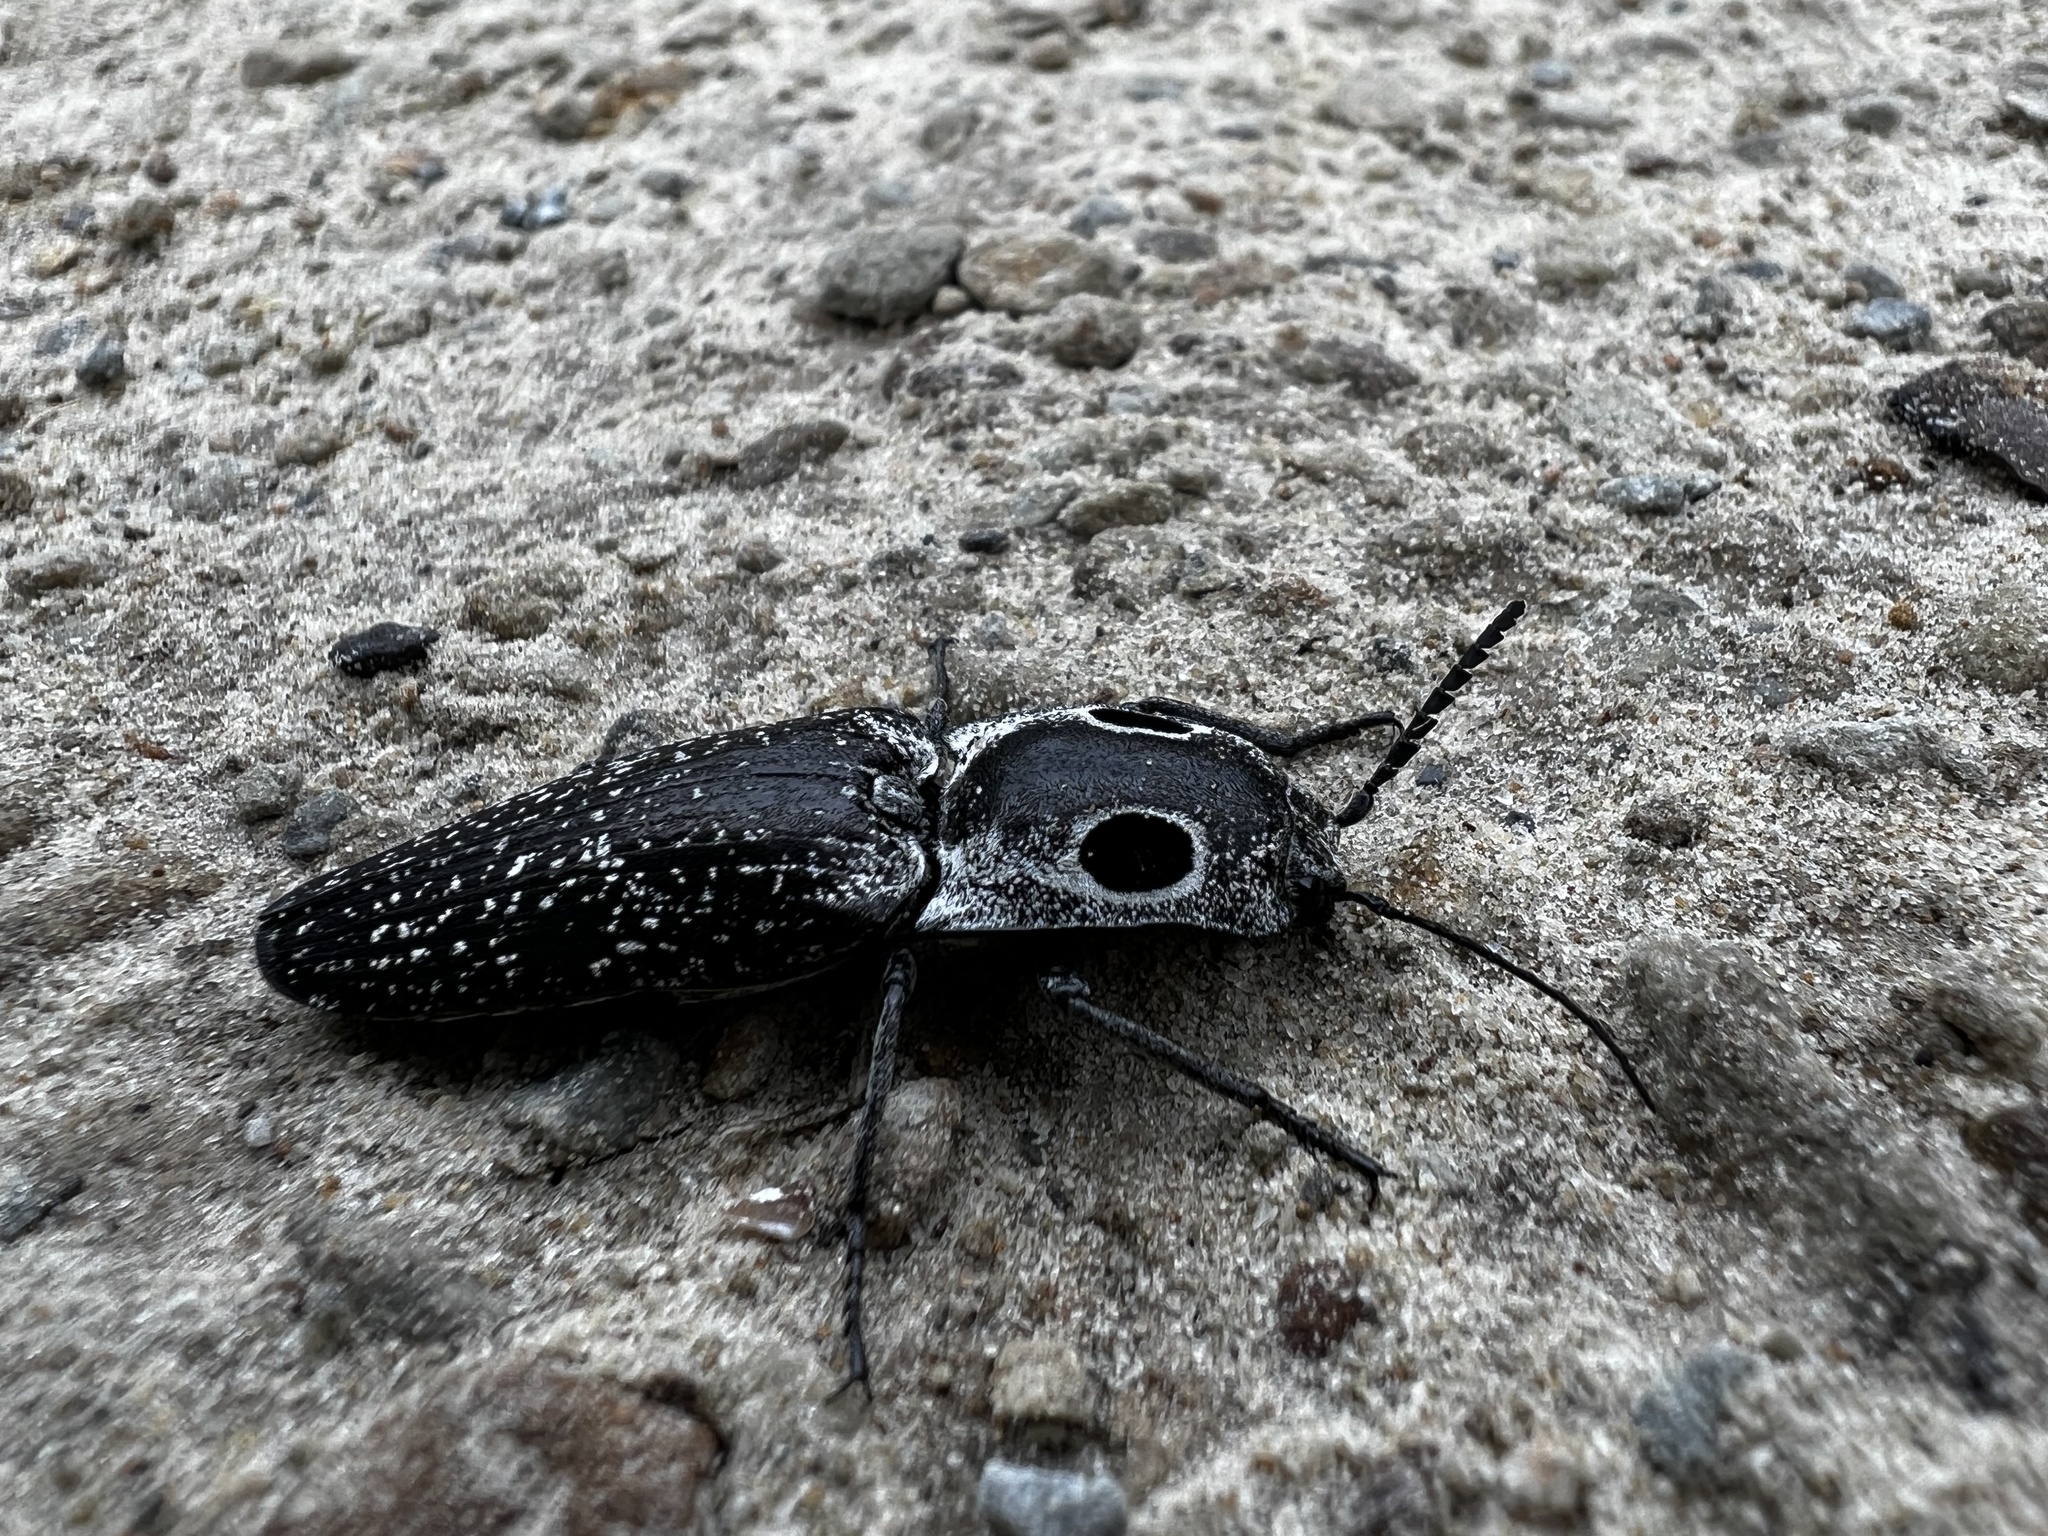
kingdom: Animalia
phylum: Arthropoda
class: Insecta
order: Coleoptera
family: Elateridae
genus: Alaus
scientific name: Alaus oculatus
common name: Eastern eyed click beetle
